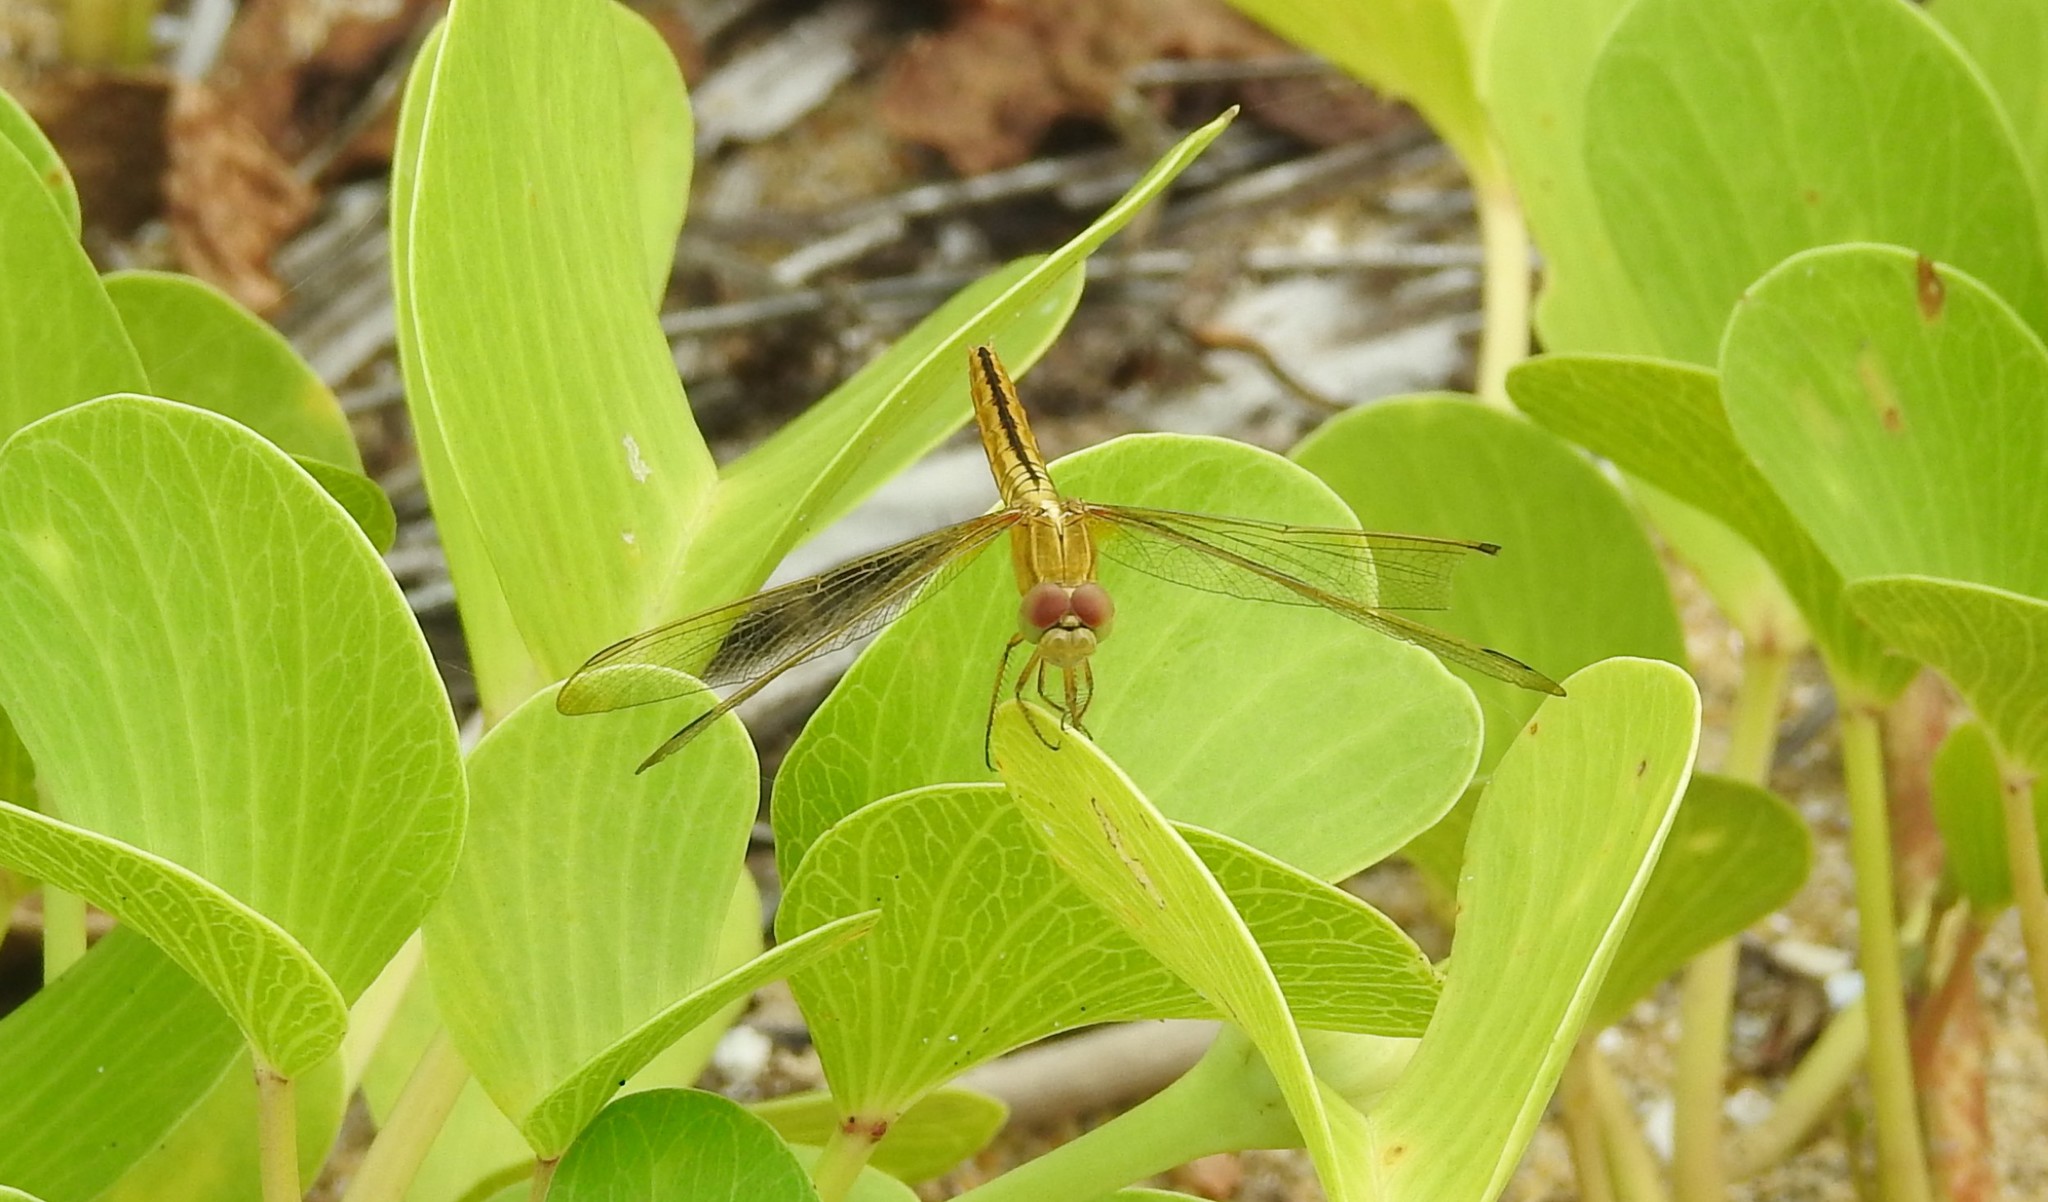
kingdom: Animalia
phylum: Arthropoda
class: Insecta
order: Odonata
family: Libellulidae
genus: Crocothemis
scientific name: Crocothemis servilia
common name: Scarlet skimmer
